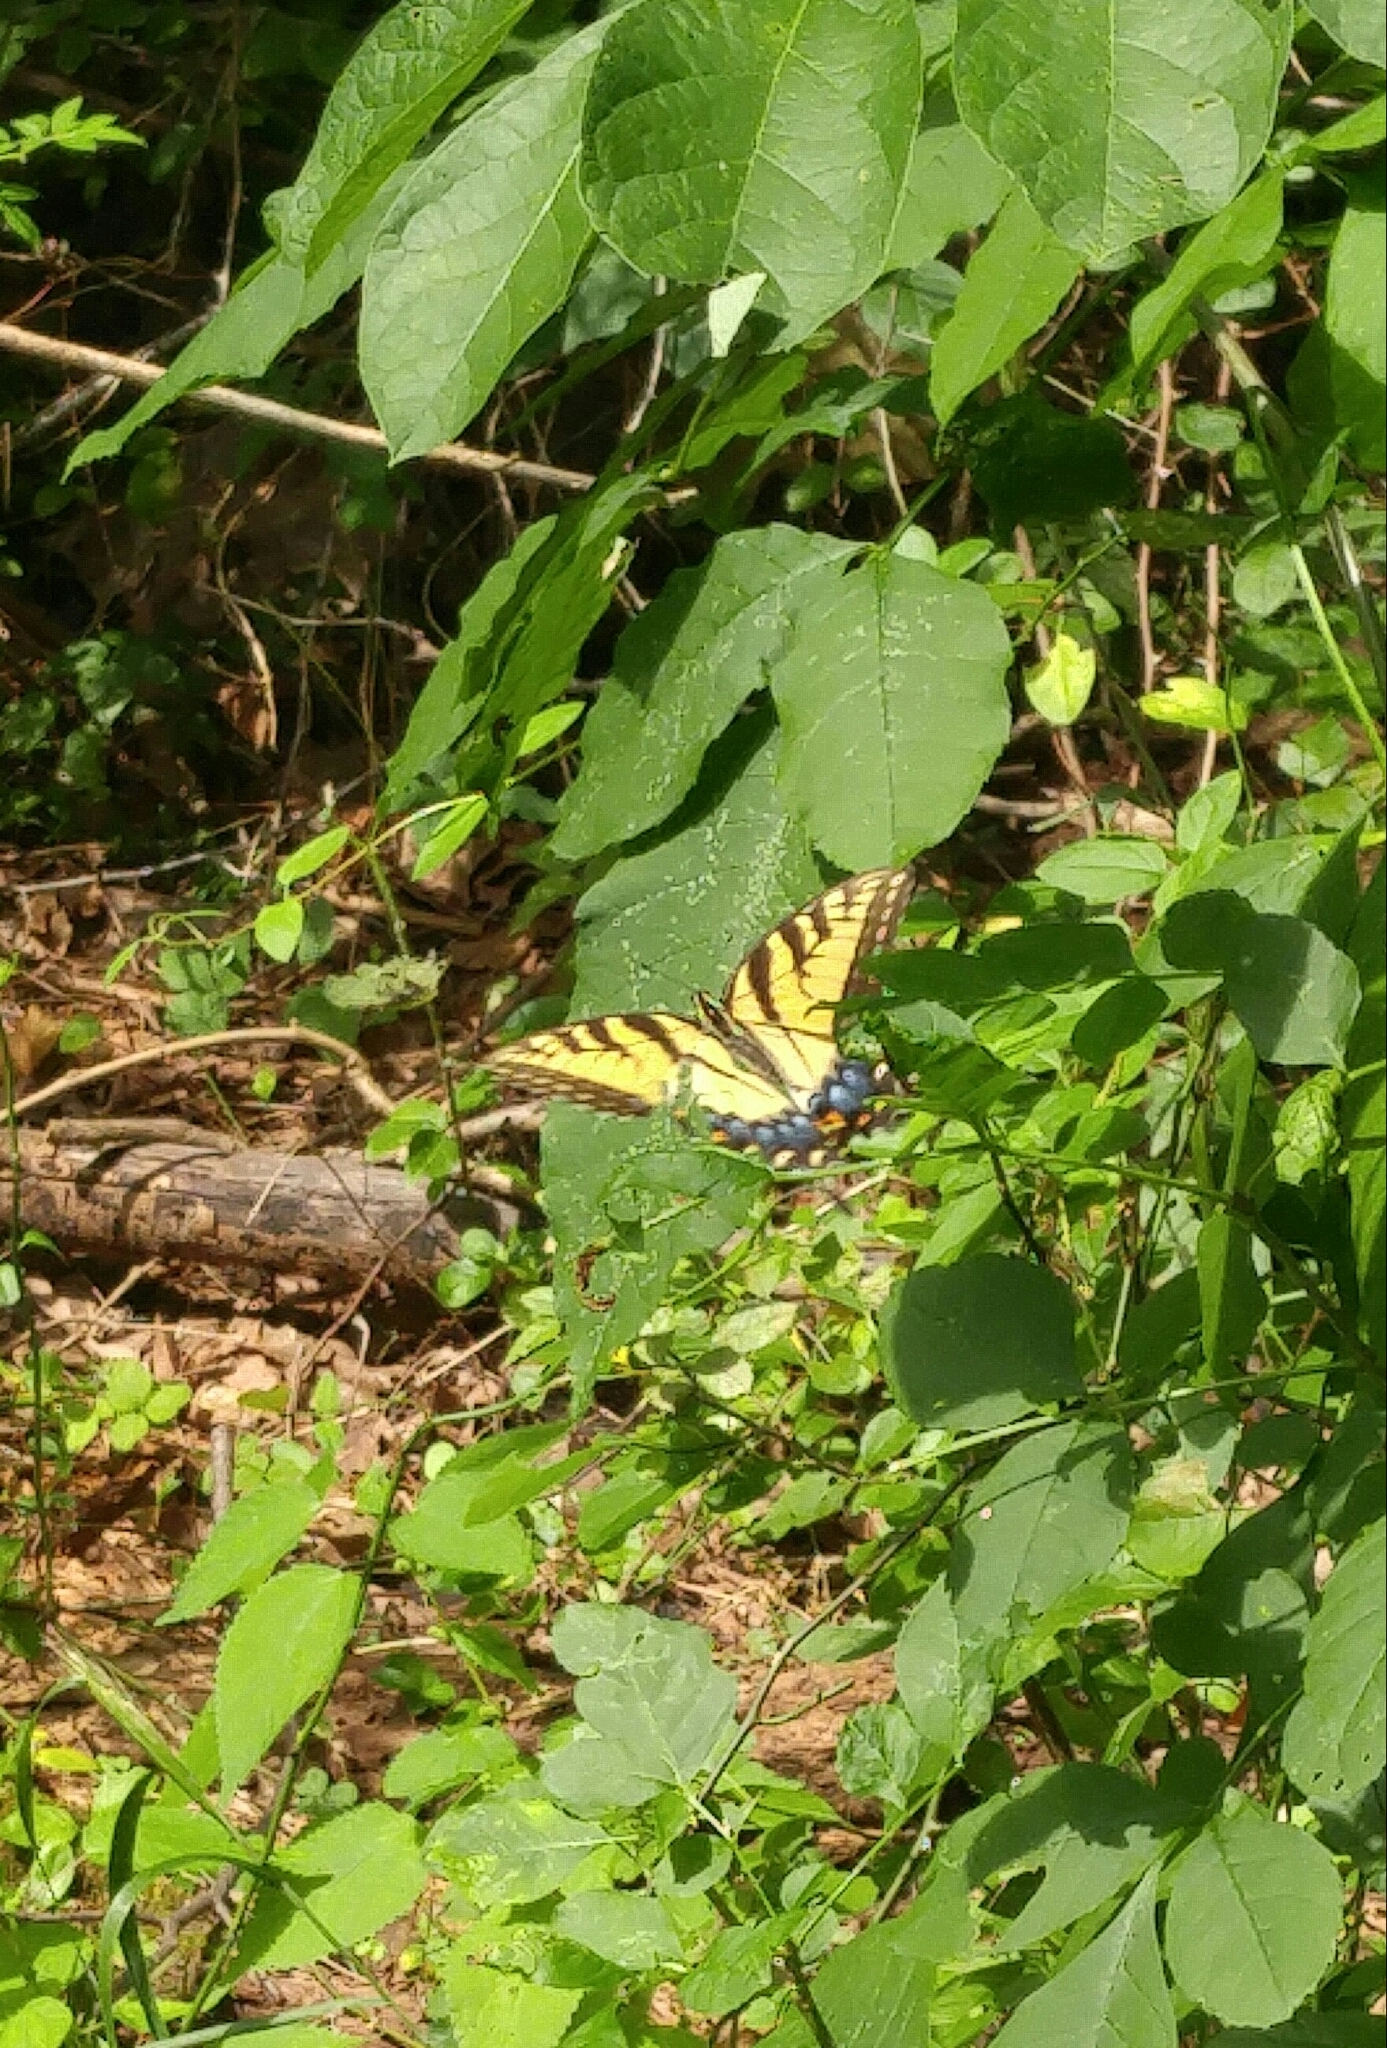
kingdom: Animalia
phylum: Arthropoda
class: Insecta
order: Lepidoptera
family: Papilionidae
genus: Papilio
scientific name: Papilio glaucus
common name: Tiger swallowtail
